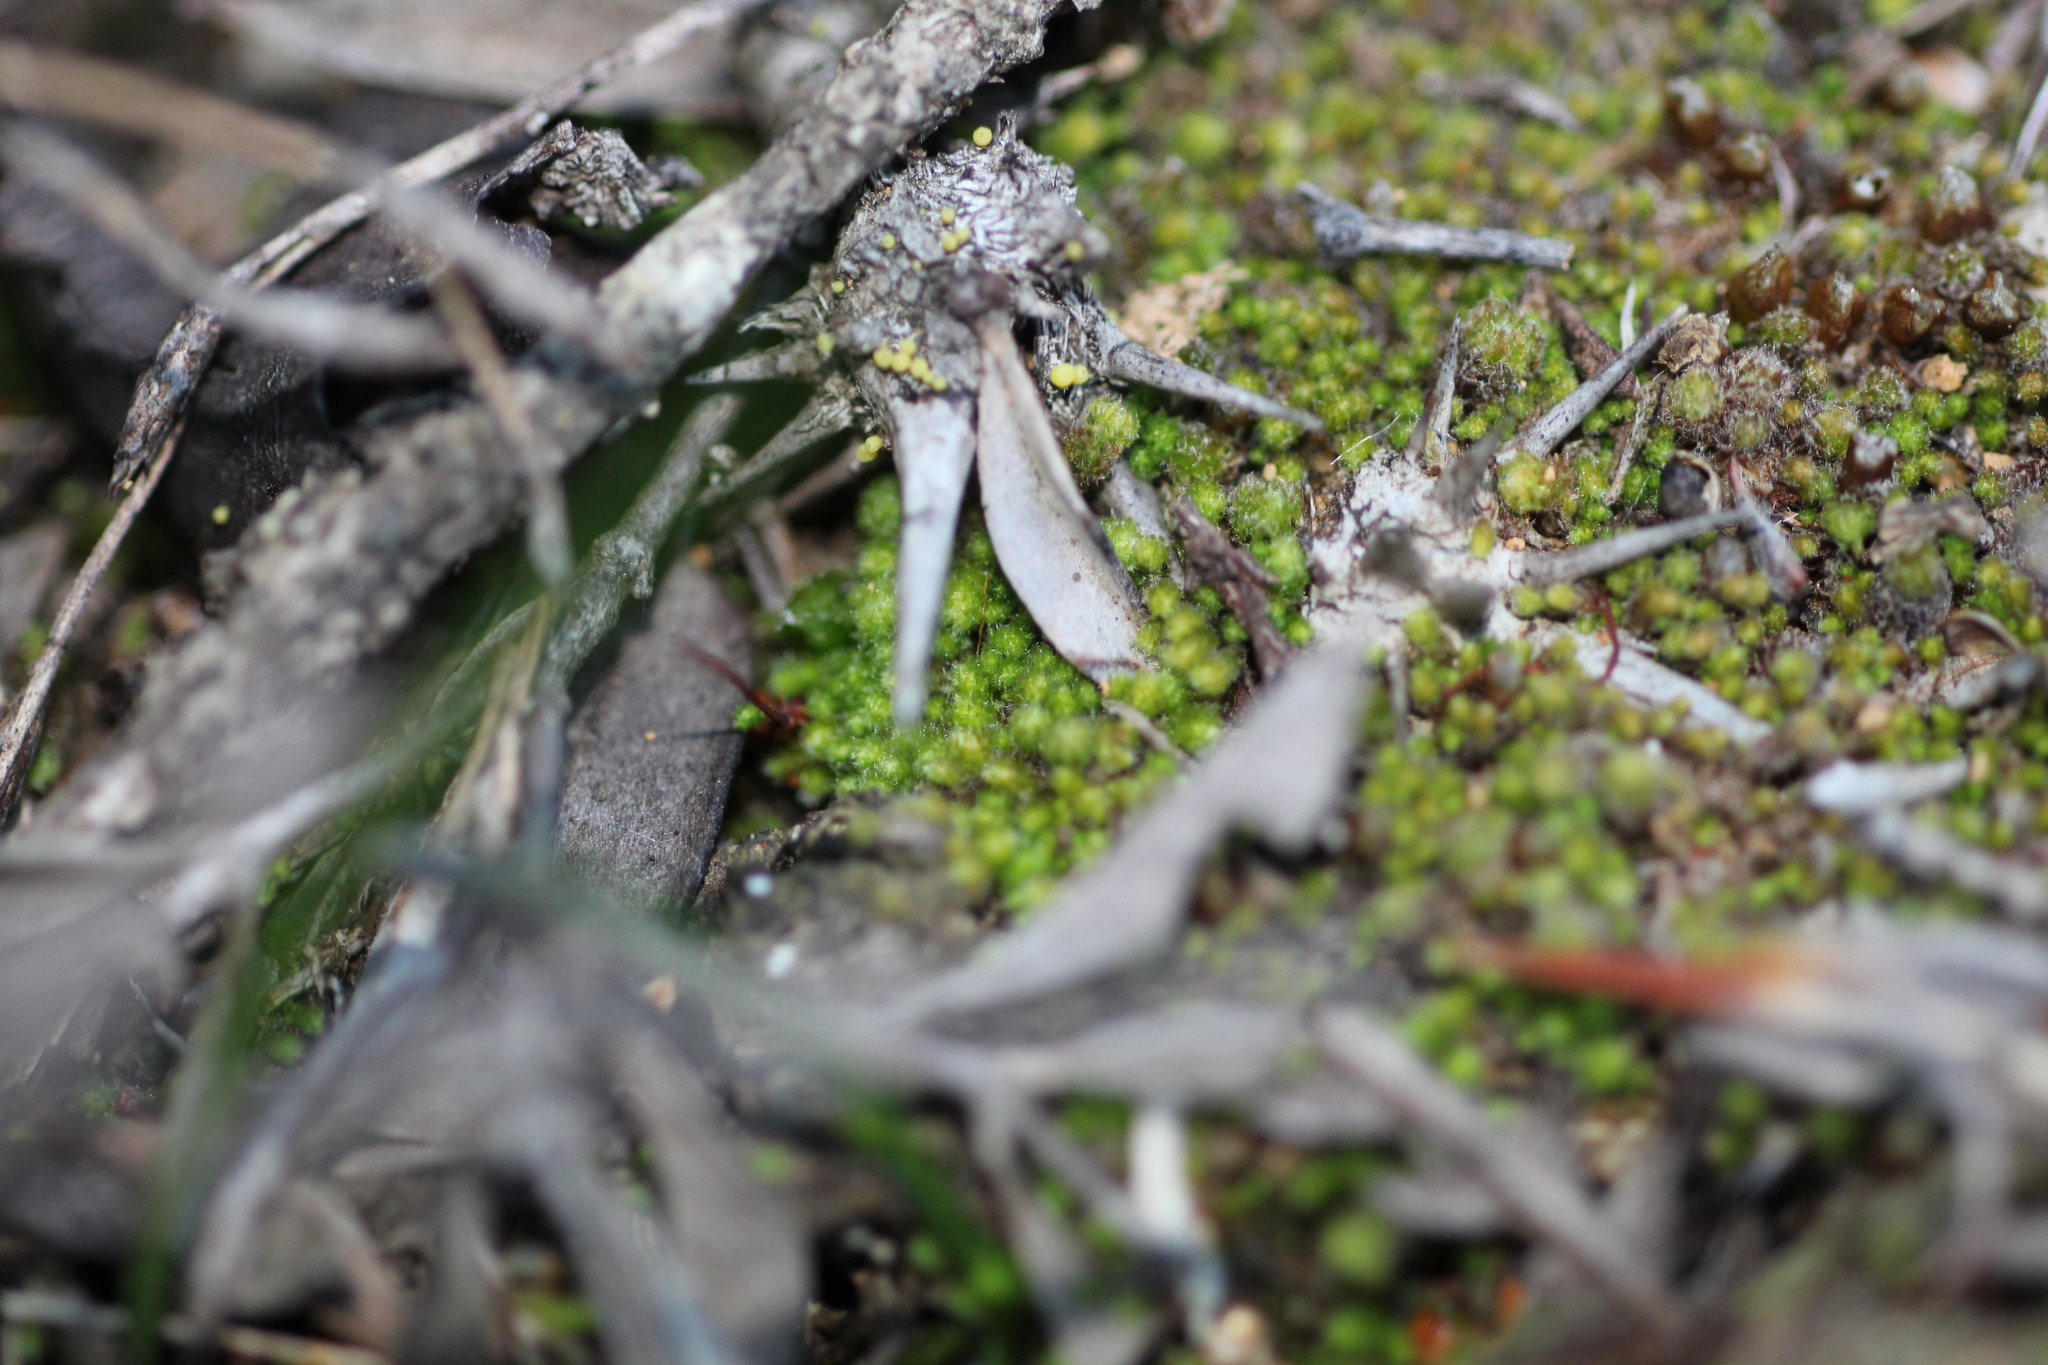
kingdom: Plantae
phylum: Marchantiophyta
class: Jungermanniopsida
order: Jungermanniales
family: Cephaloziellaceae
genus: Chaetophyllopsis
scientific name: Chaetophyllopsis whiteleggei
